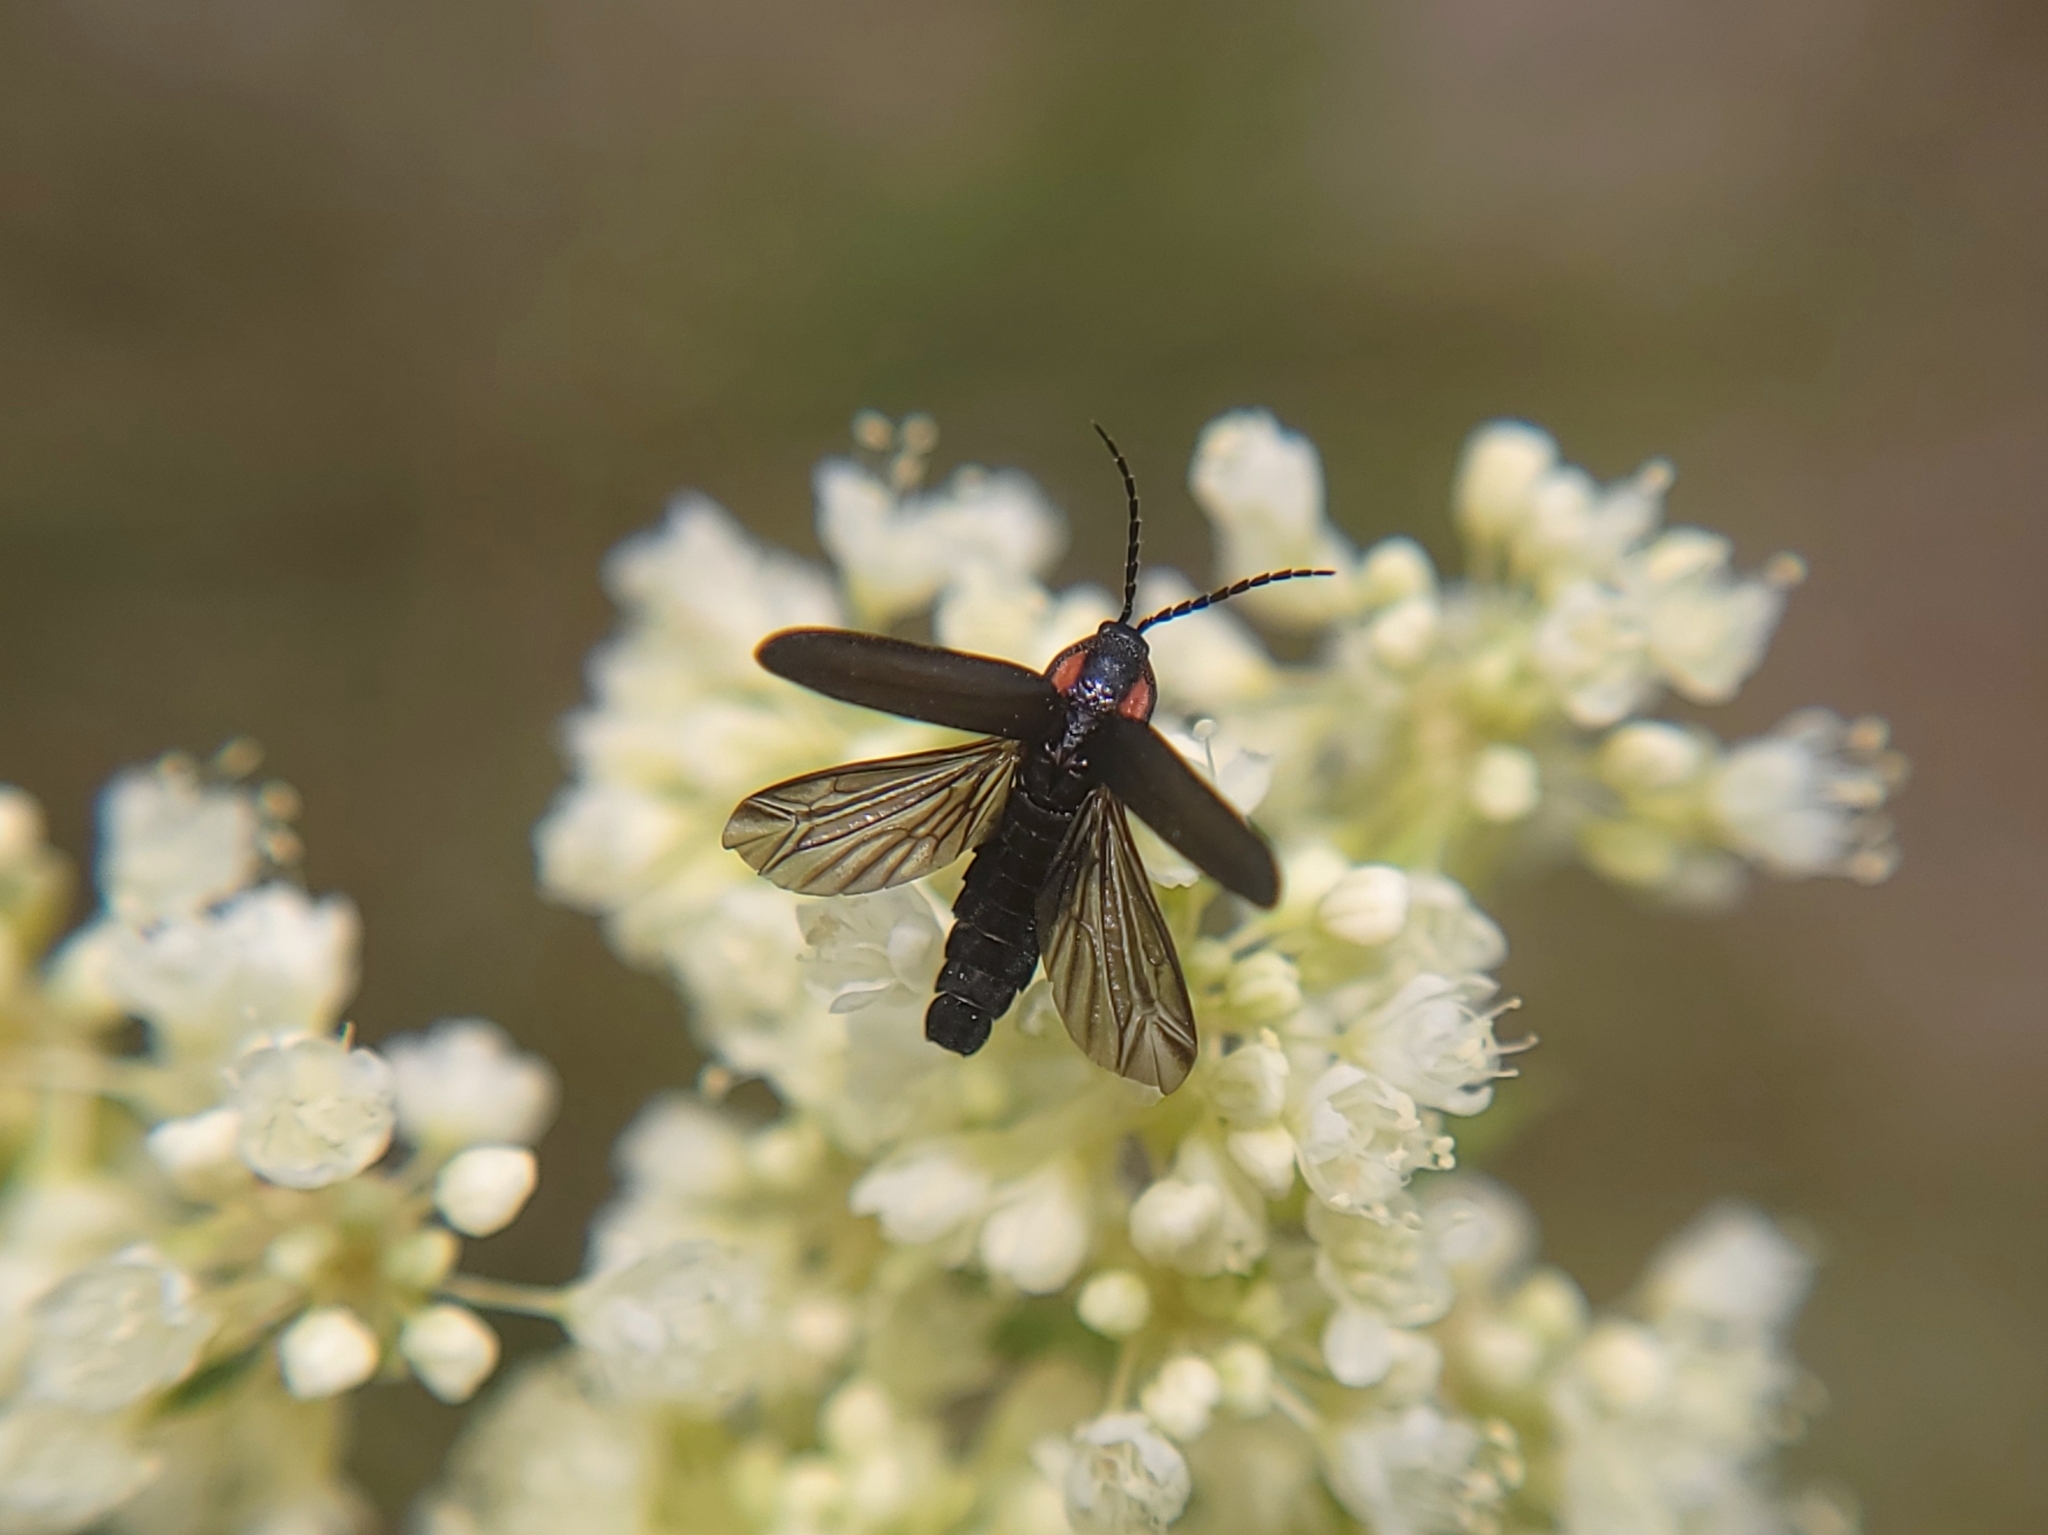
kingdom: Animalia
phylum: Arthropoda
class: Insecta
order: Coleoptera
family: Lampyridae
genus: Pyropyga
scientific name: Pyropyga nigricans
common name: Dark firefly
